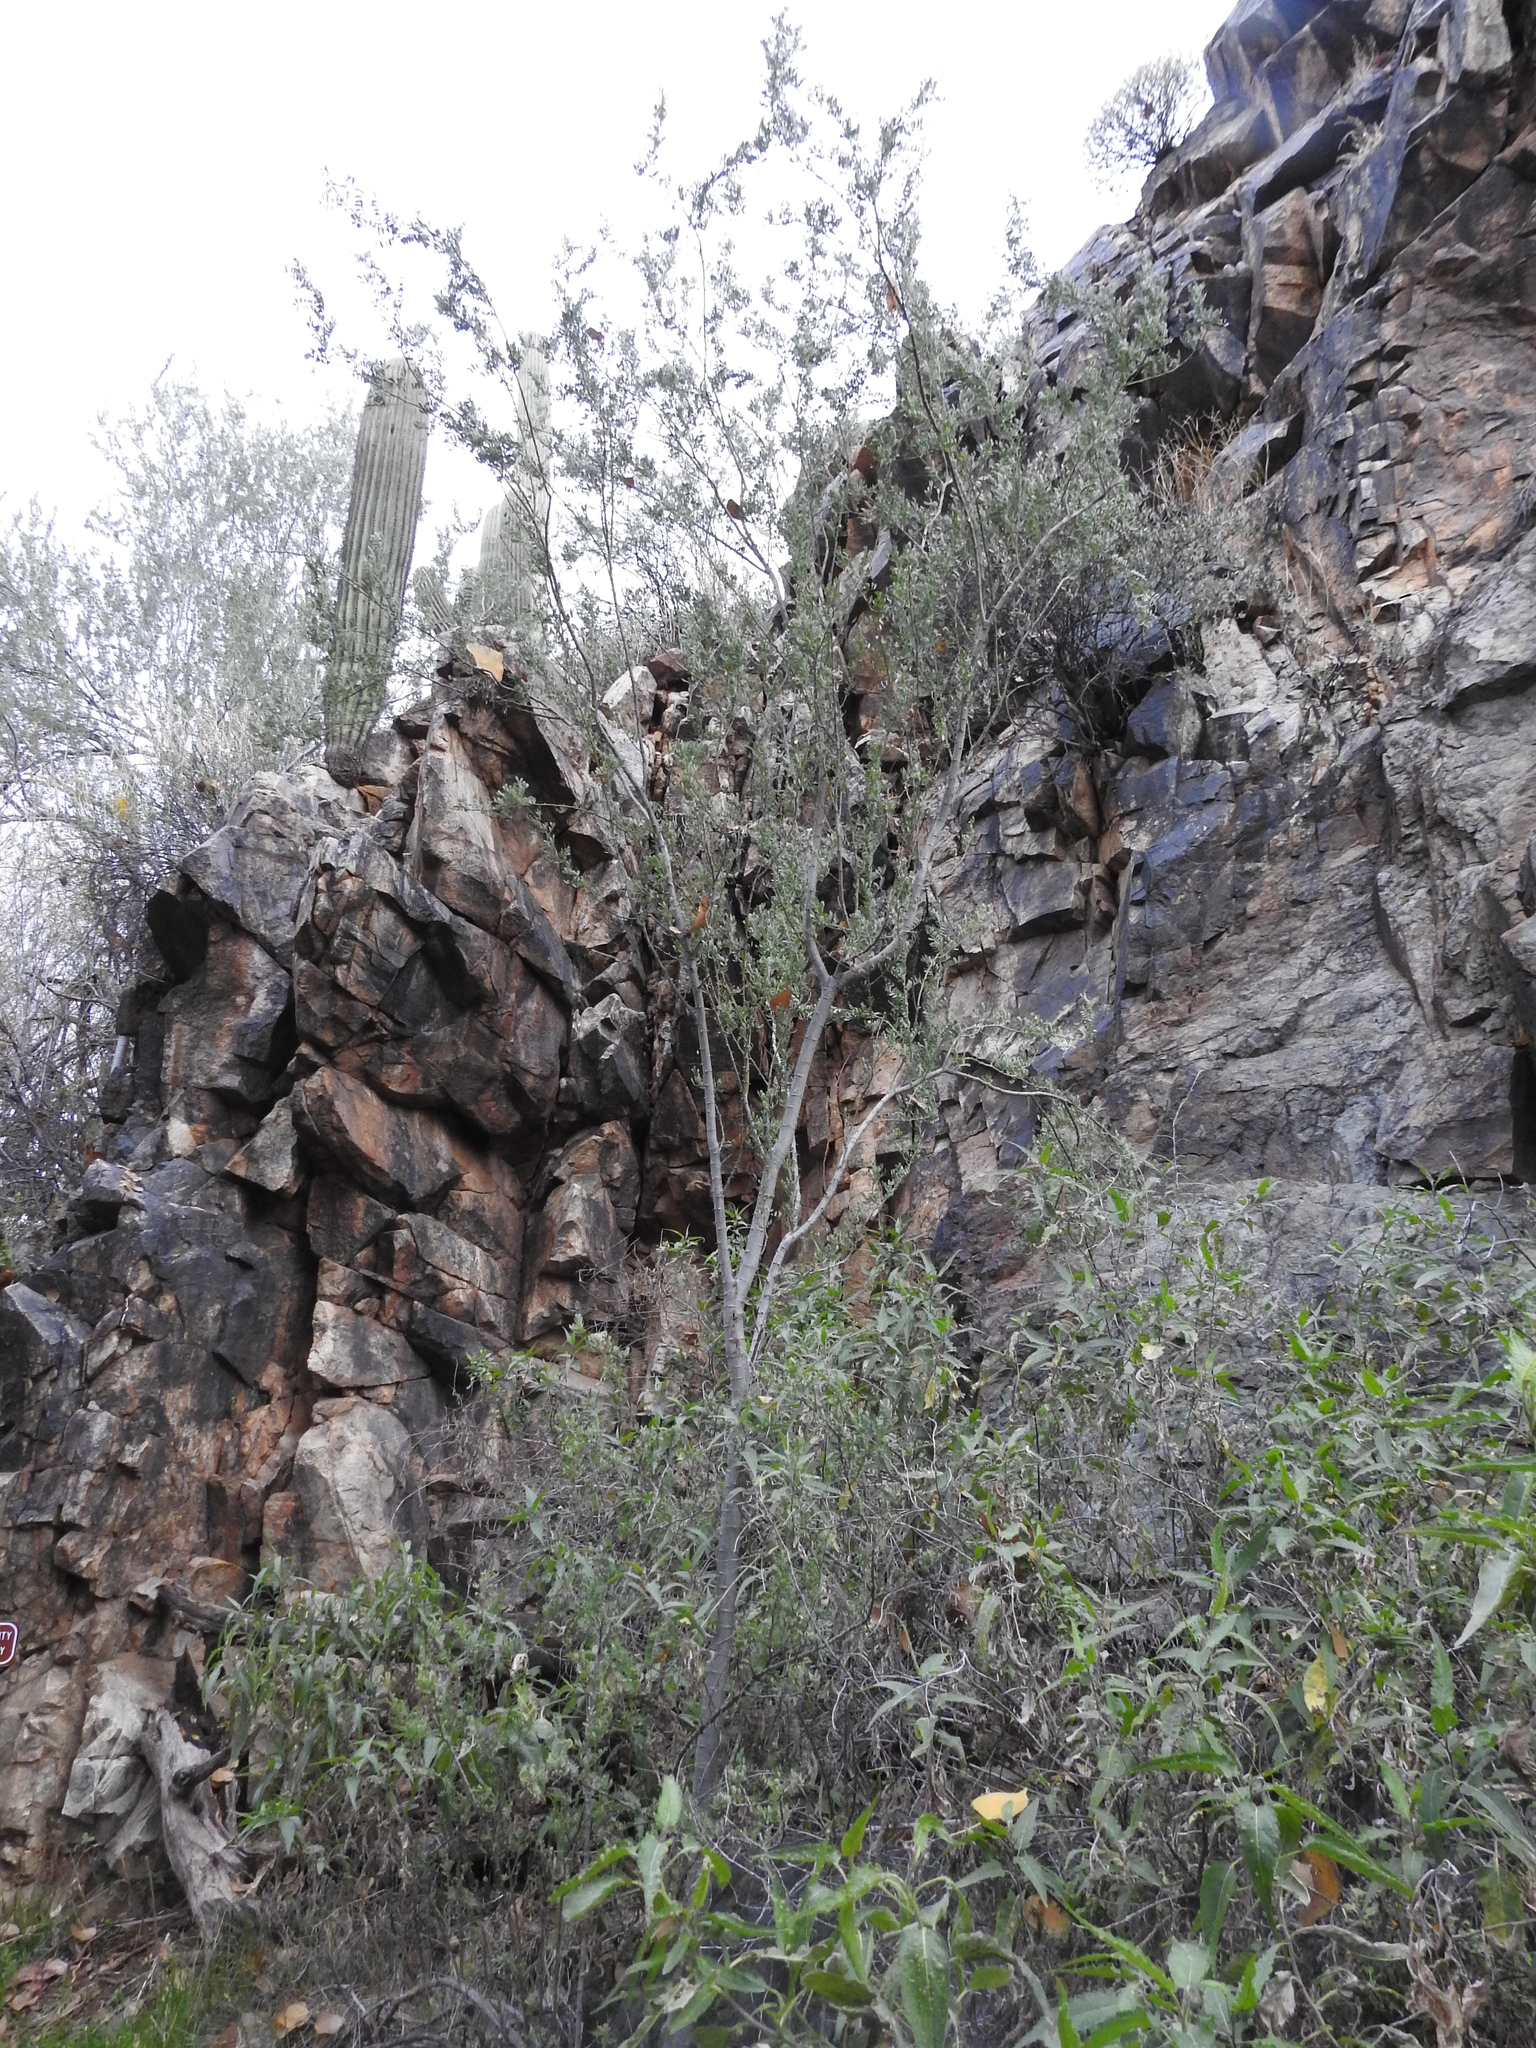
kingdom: Plantae
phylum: Tracheophyta
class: Magnoliopsida
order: Fabales
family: Fabaceae
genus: Olneya
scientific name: Olneya tesota
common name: Desert ironwood
